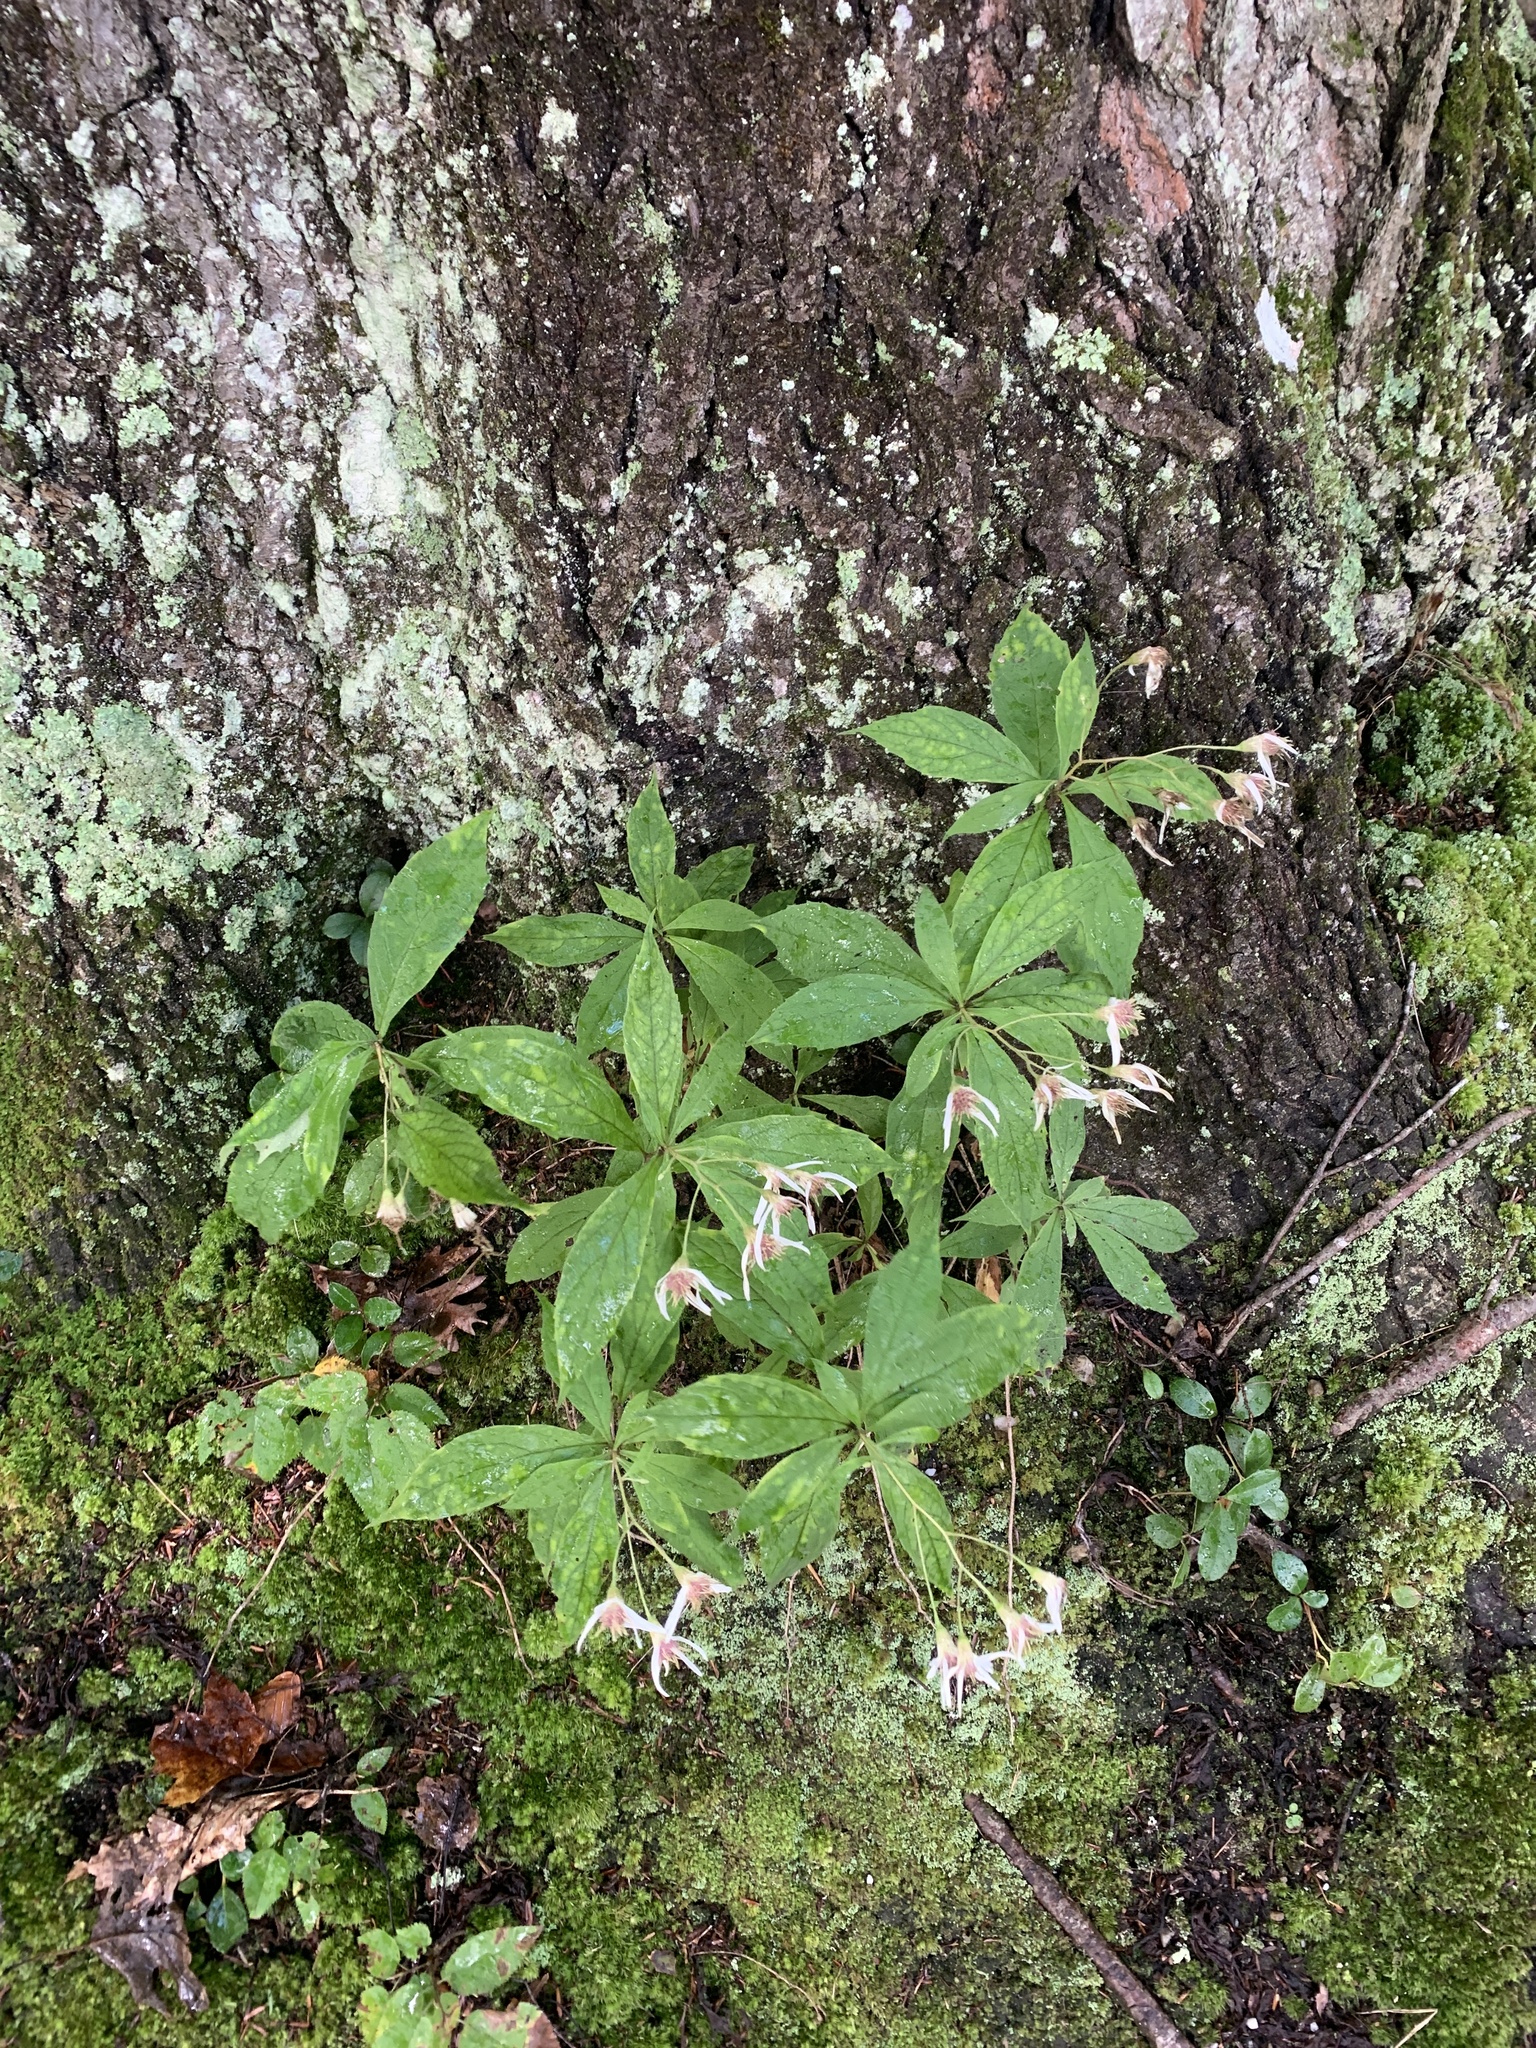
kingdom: Plantae
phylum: Tracheophyta
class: Magnoliopsida
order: Asterales
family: Asteraceae
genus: Oclemena
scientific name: Oclemena acuminata
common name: Mountain aster
